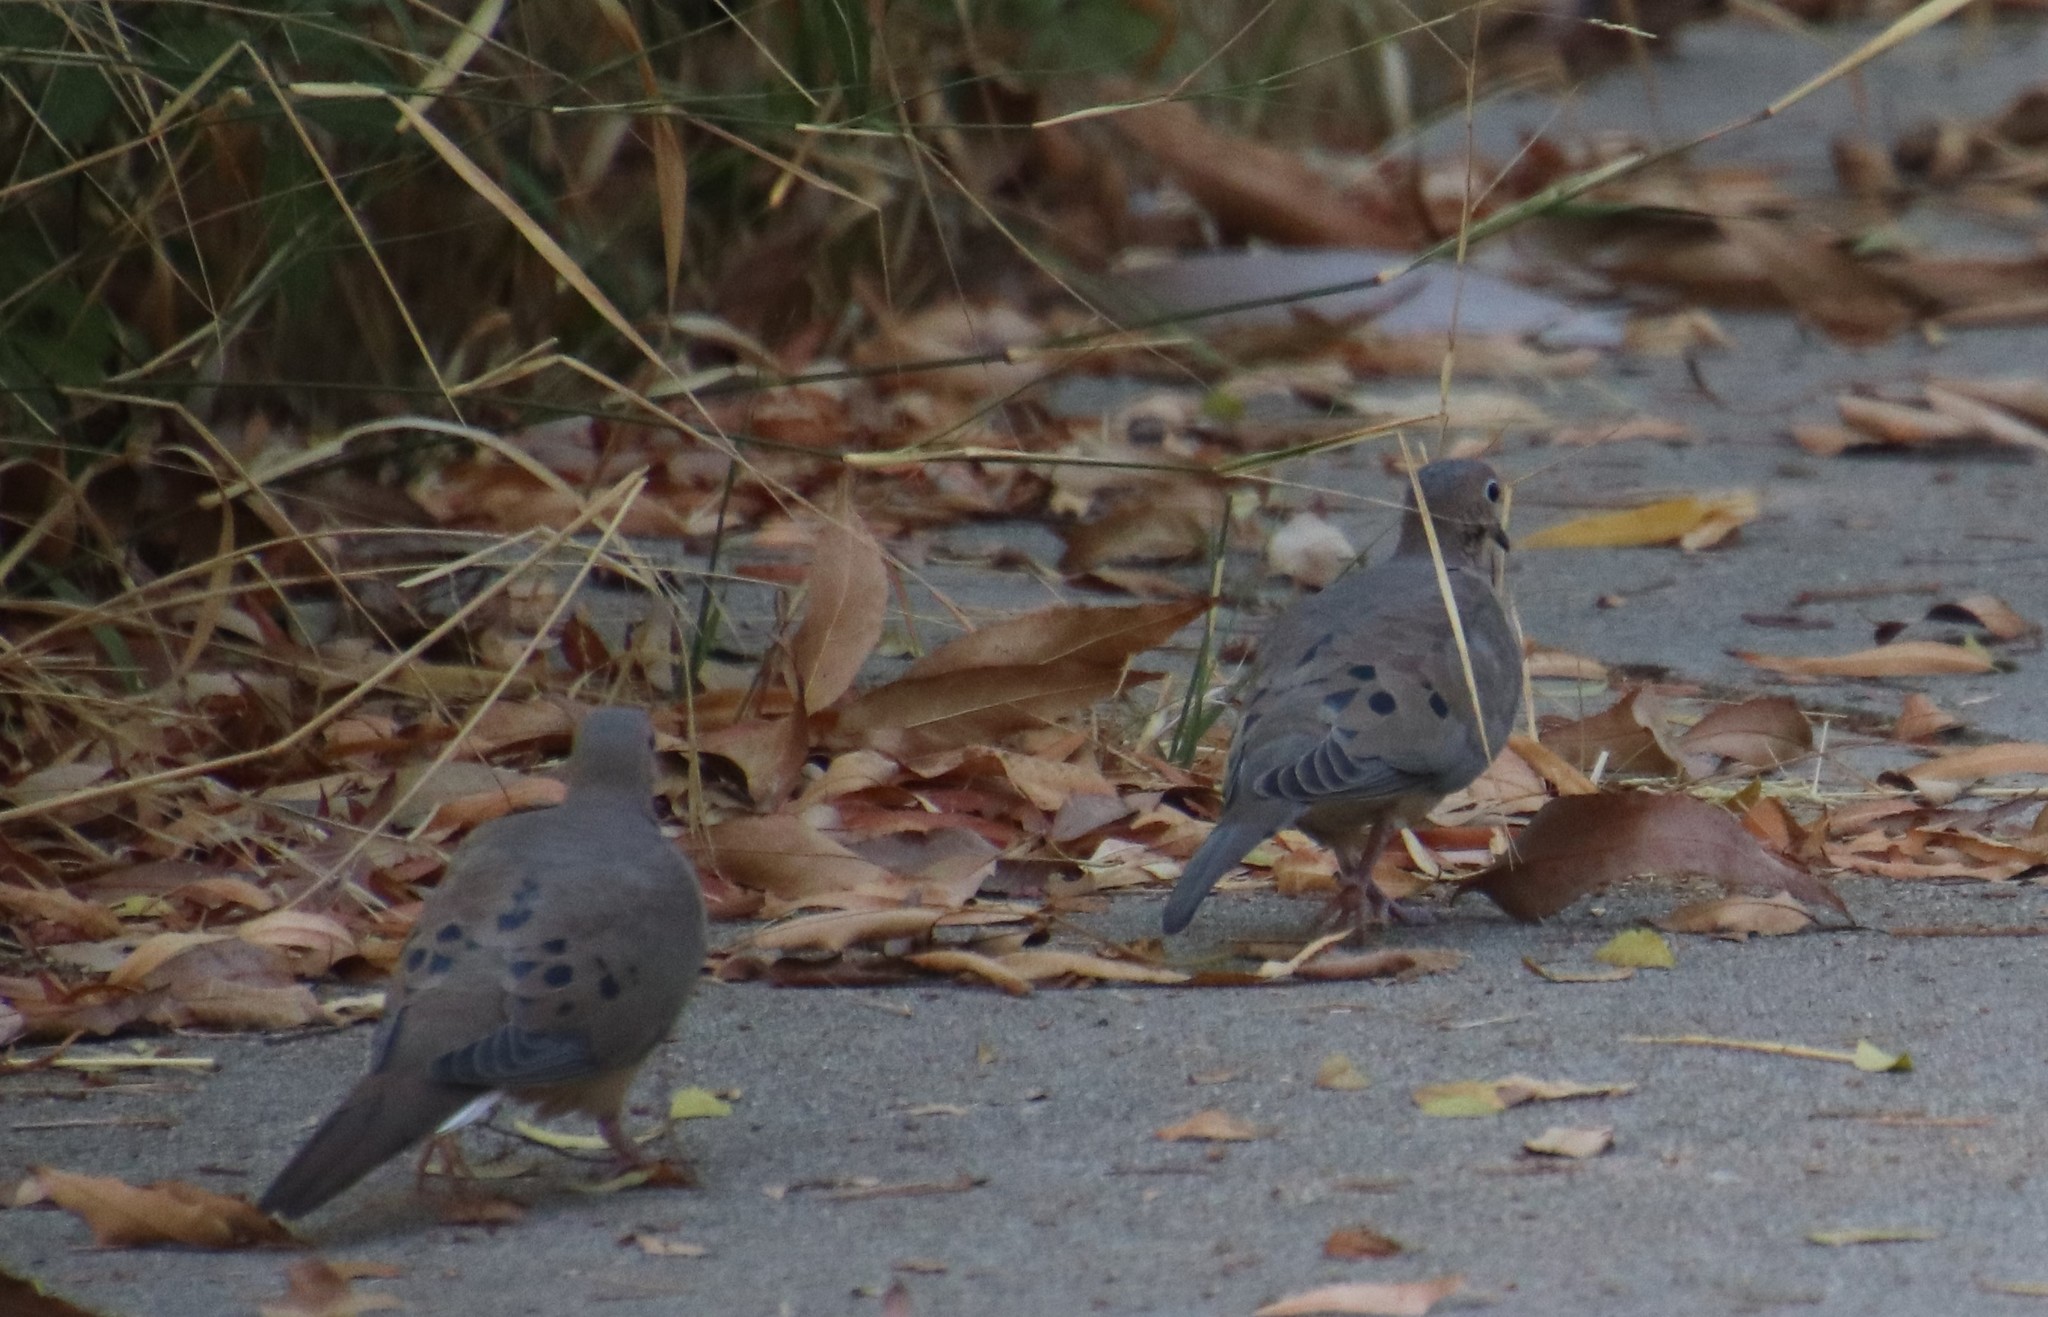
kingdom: Animalia
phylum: Chordata
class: Aves
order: Columbiformes
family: Columbidae
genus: Zenaida
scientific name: Zenaida macroura
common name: Mourning dove
